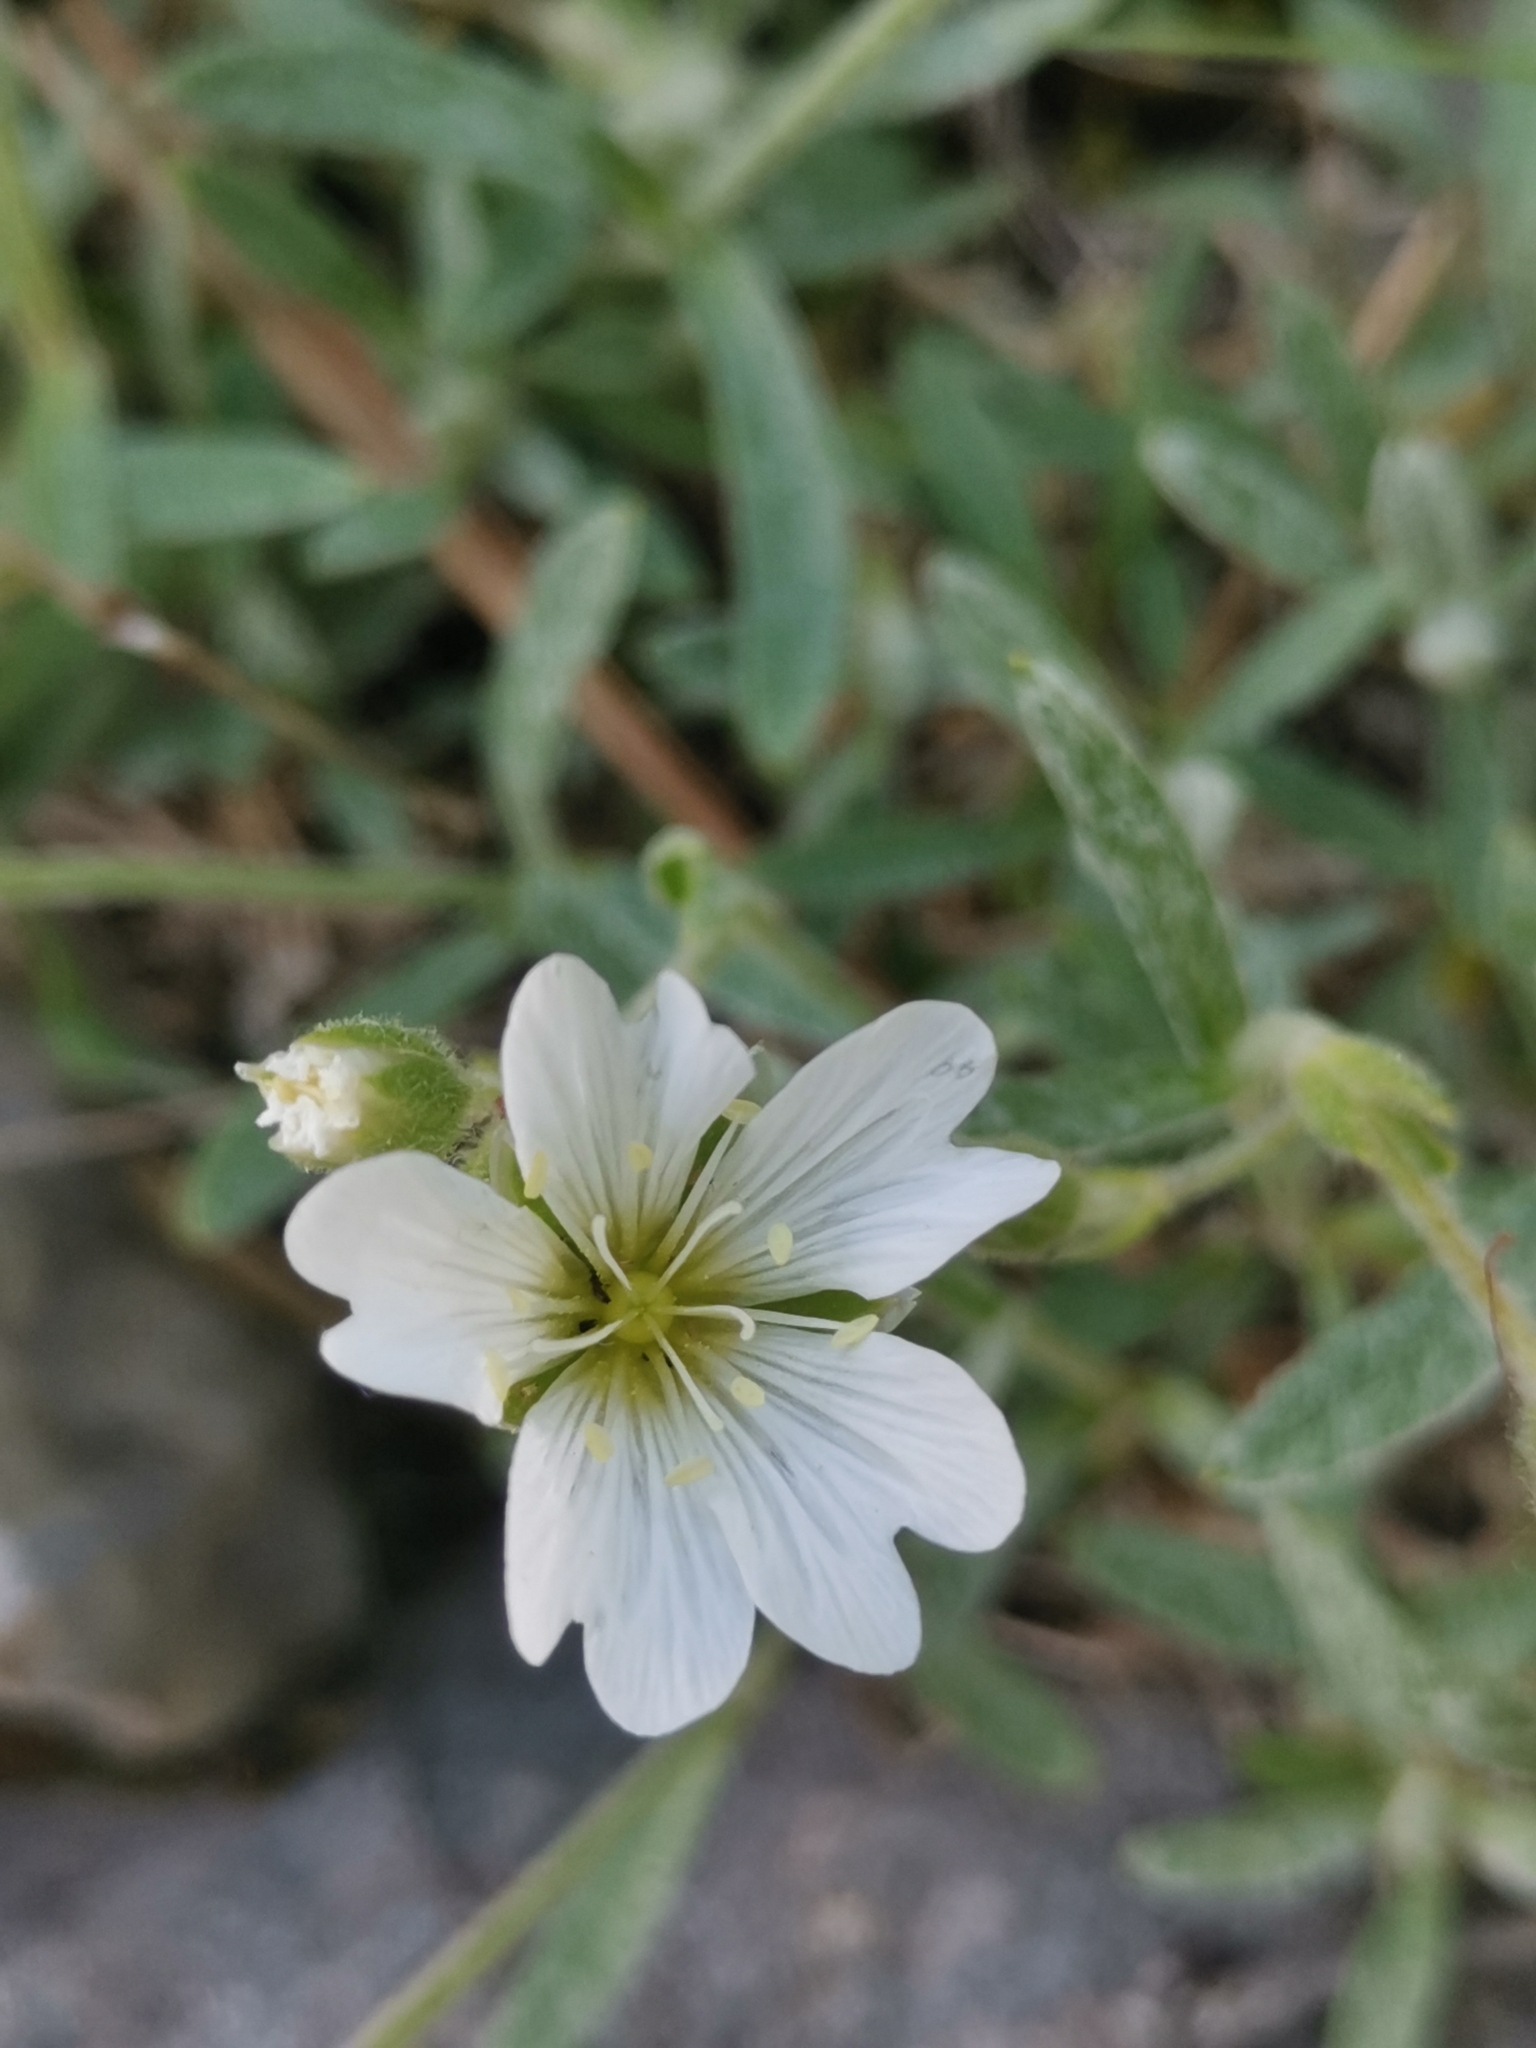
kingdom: Plantae
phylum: Tracheophyta
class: Magnoliopsida
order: Caryophyllales
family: Caryophyllaceae
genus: Cerastium
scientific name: Cerastium decalvans
